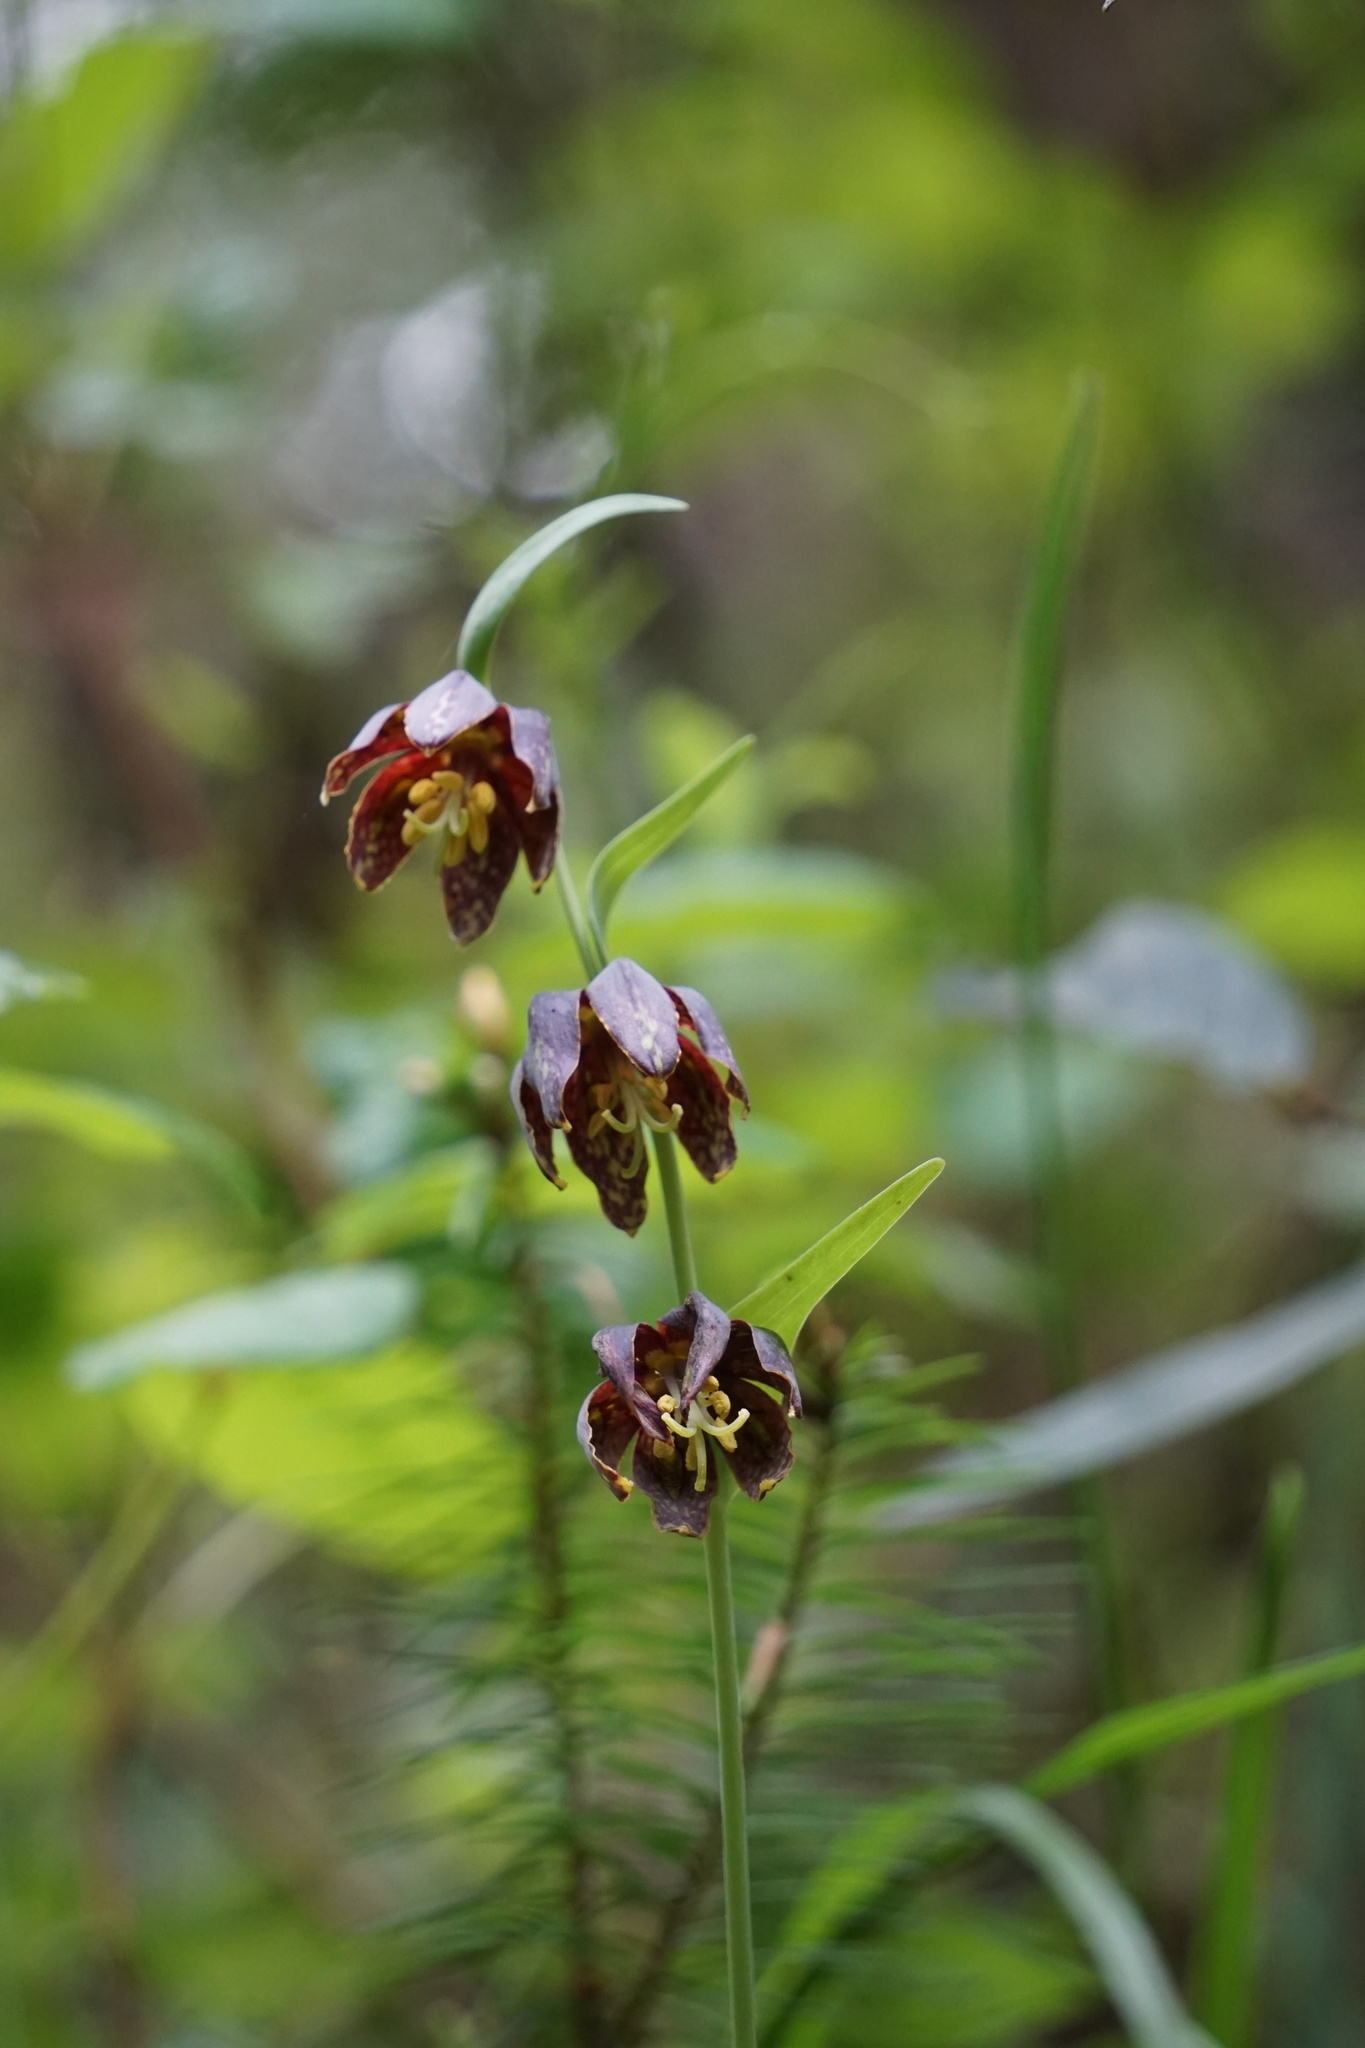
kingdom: Plantae
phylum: Tracheophyta
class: Liliopsida
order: Liliales
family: Liliaceae
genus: Fritillaria
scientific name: Fritillaria affinis
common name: Ojai fritillary
